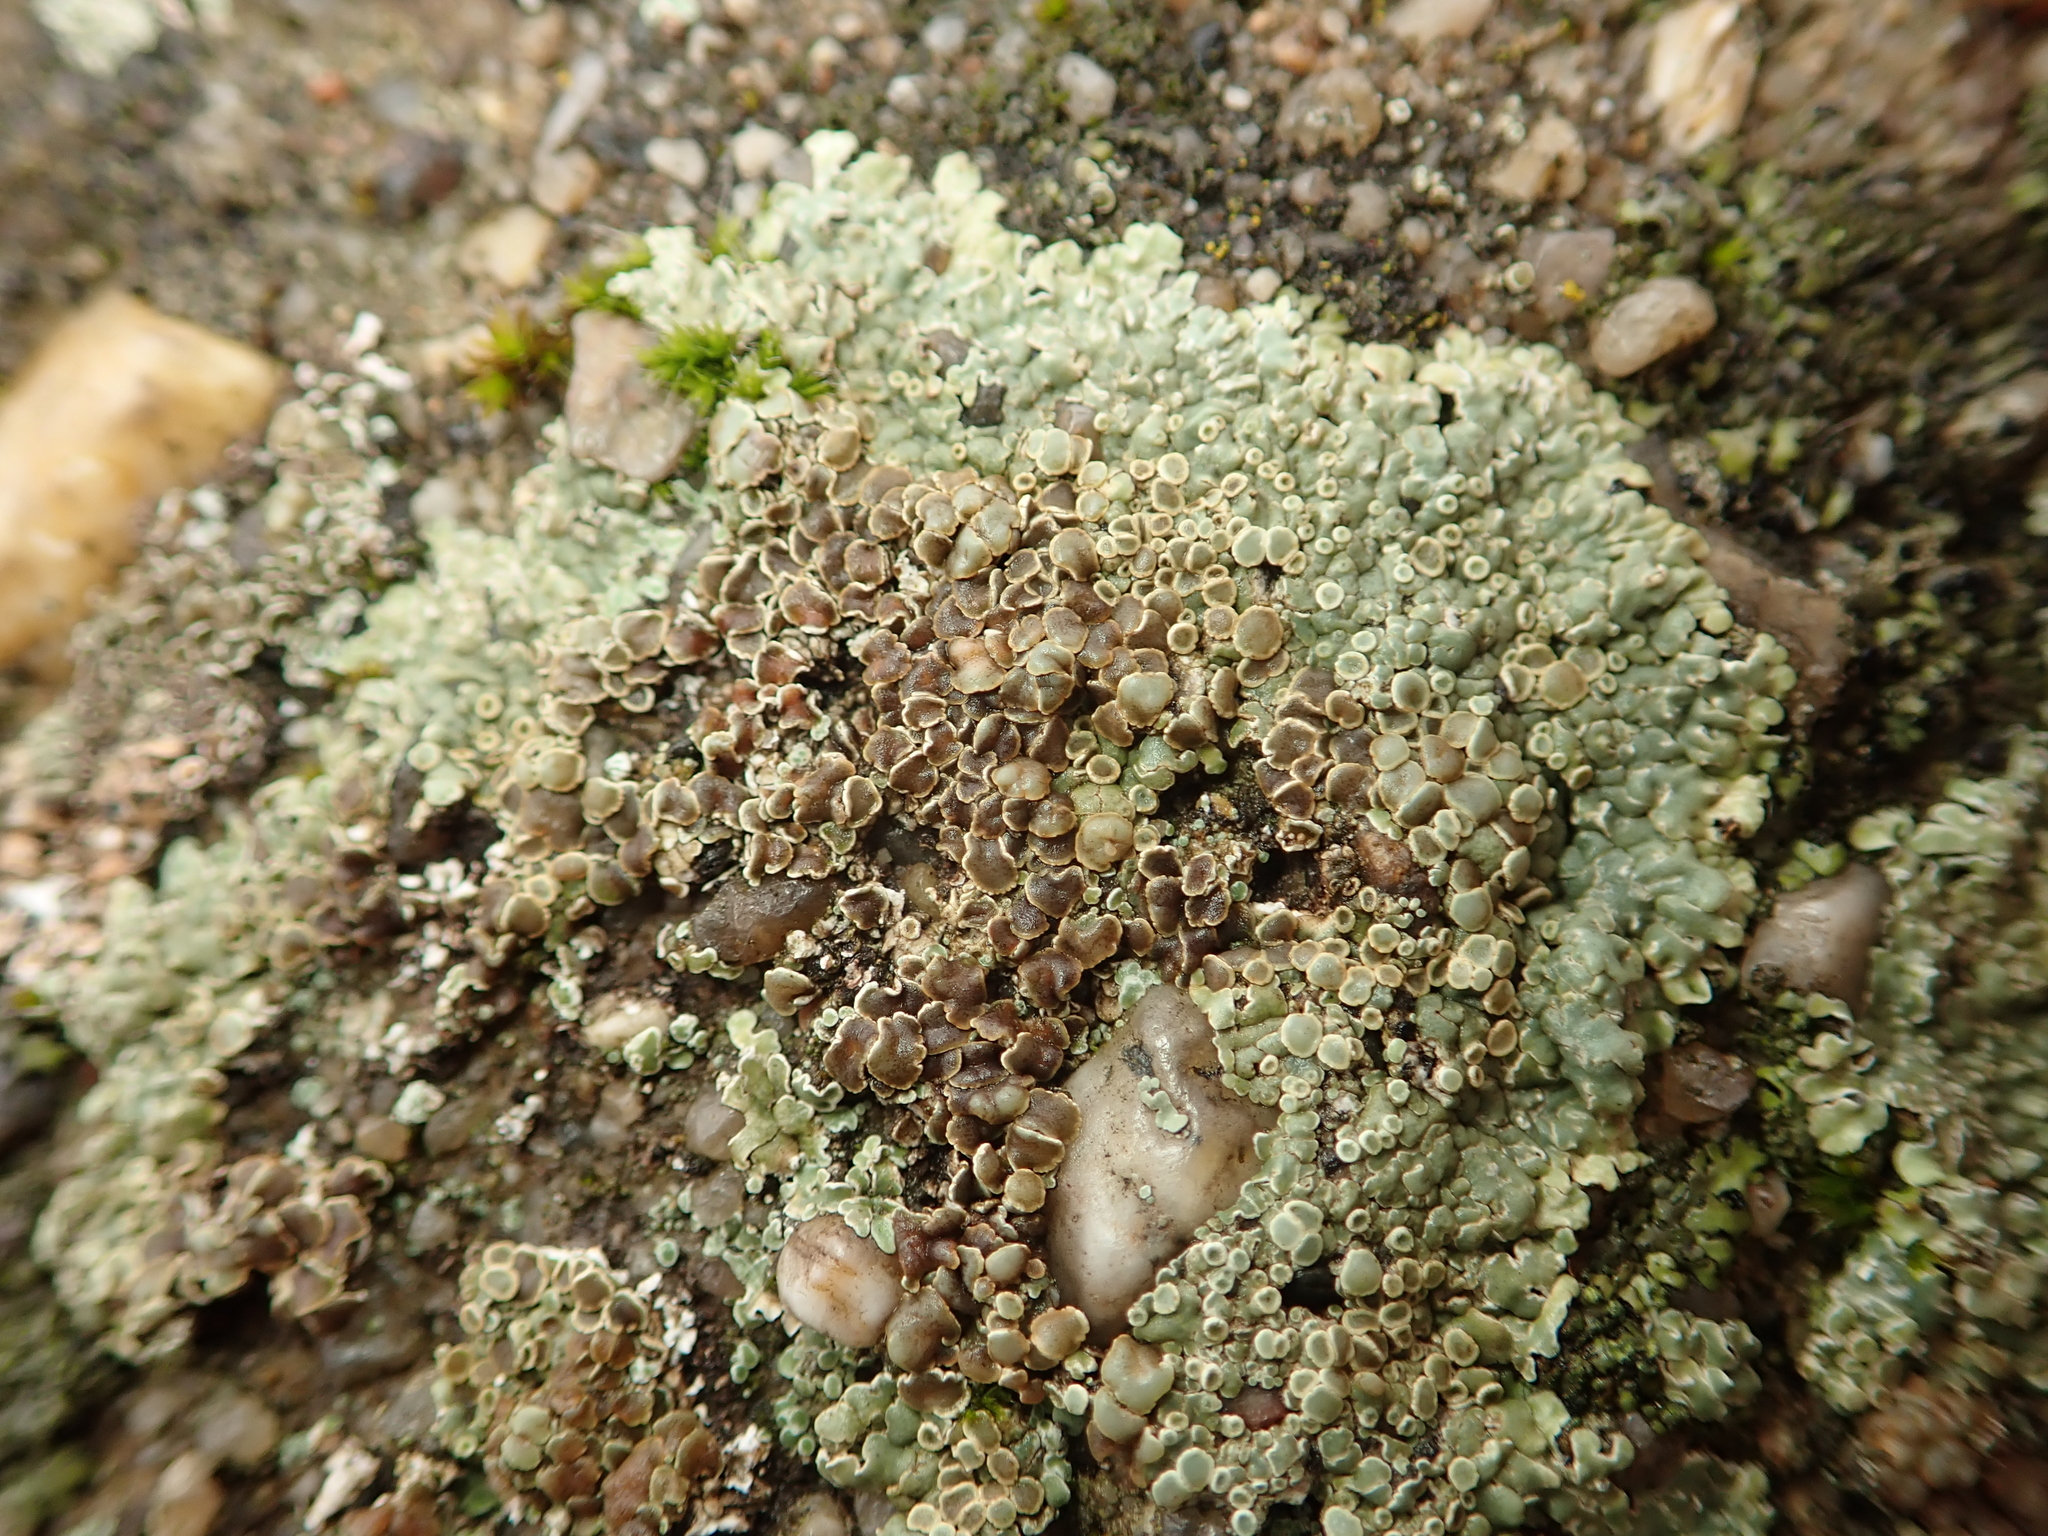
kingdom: Fungi
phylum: Ascomycota
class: Lecanoromycetes
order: Lecanorales
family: Lecanoraceae
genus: Protoparmeliopsis
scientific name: Protoparmeliopsis muralis
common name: Stonewall rim lichen
